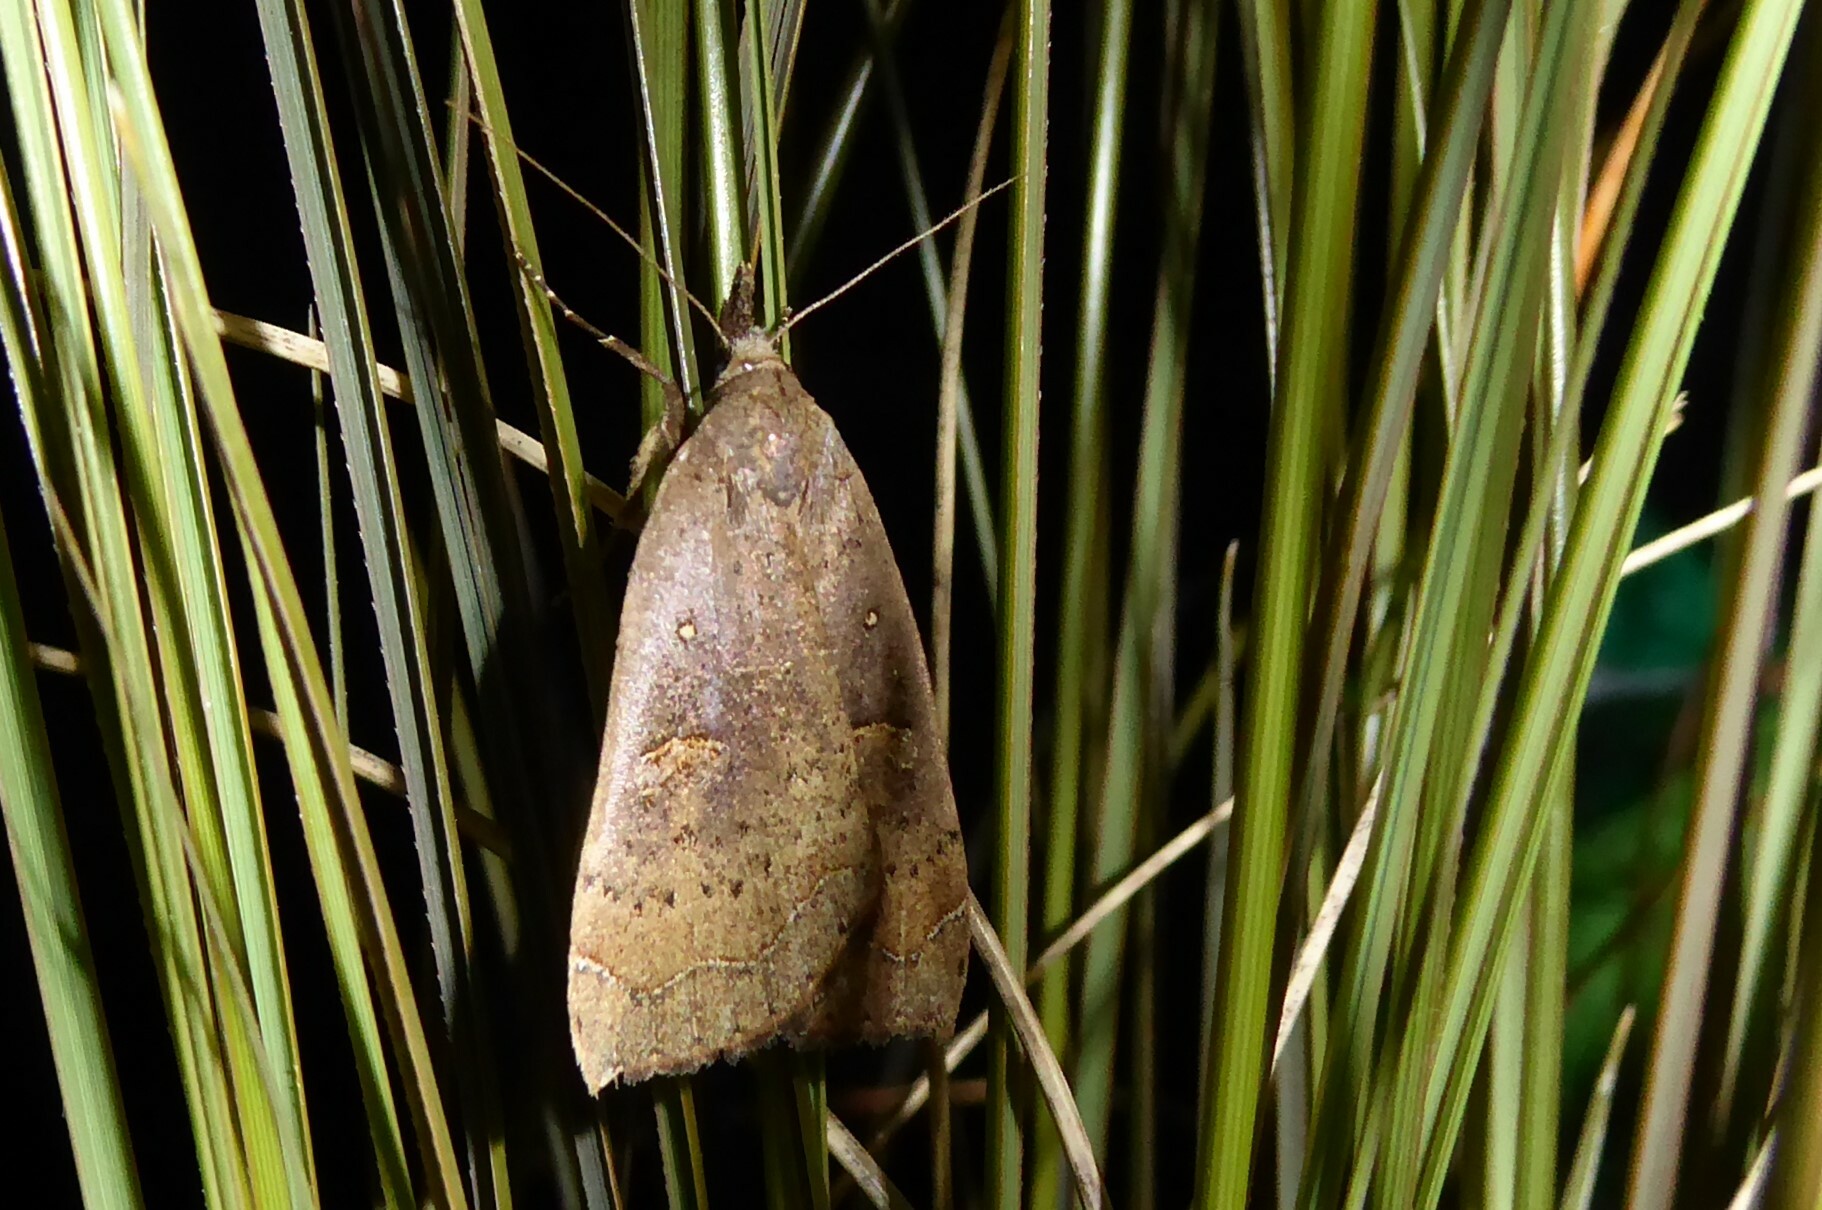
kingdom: Animalia
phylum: Arthropoda
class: Insecta
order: Lepidoptera
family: Erebidae
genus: Rhapsa
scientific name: Rhapsa scotosialis
